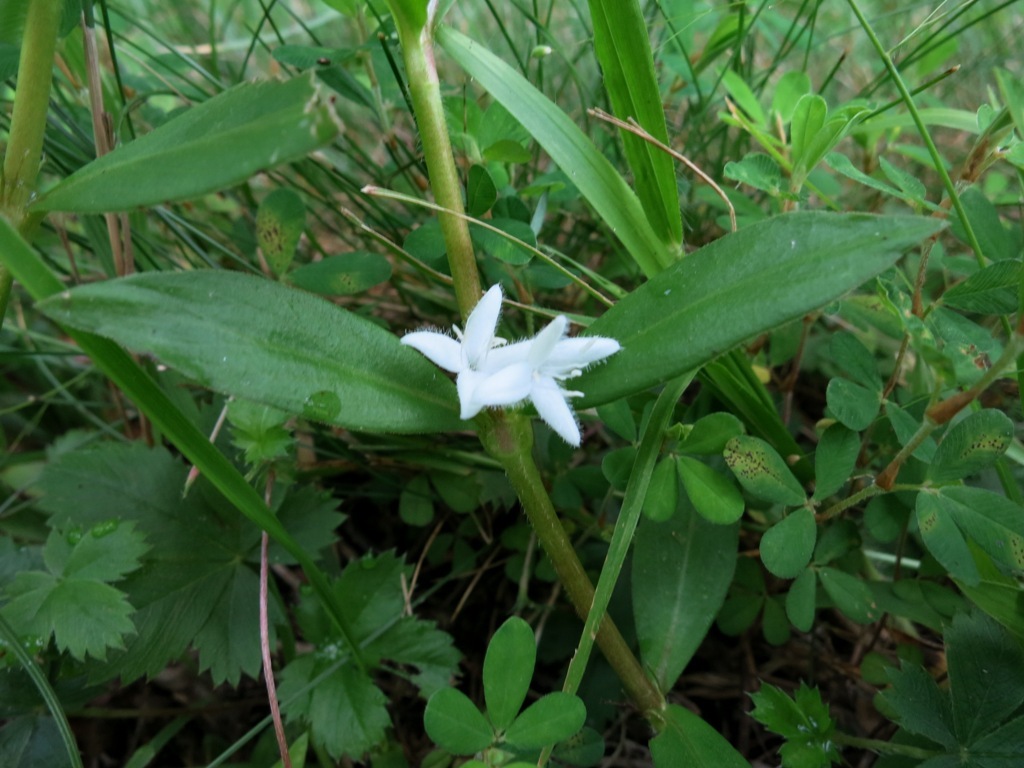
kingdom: Plantae
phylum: Tracheophyta
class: Magnoliopsida
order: Gentianales
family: Rubiaceae
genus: Diodia
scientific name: Diodia virginiana
